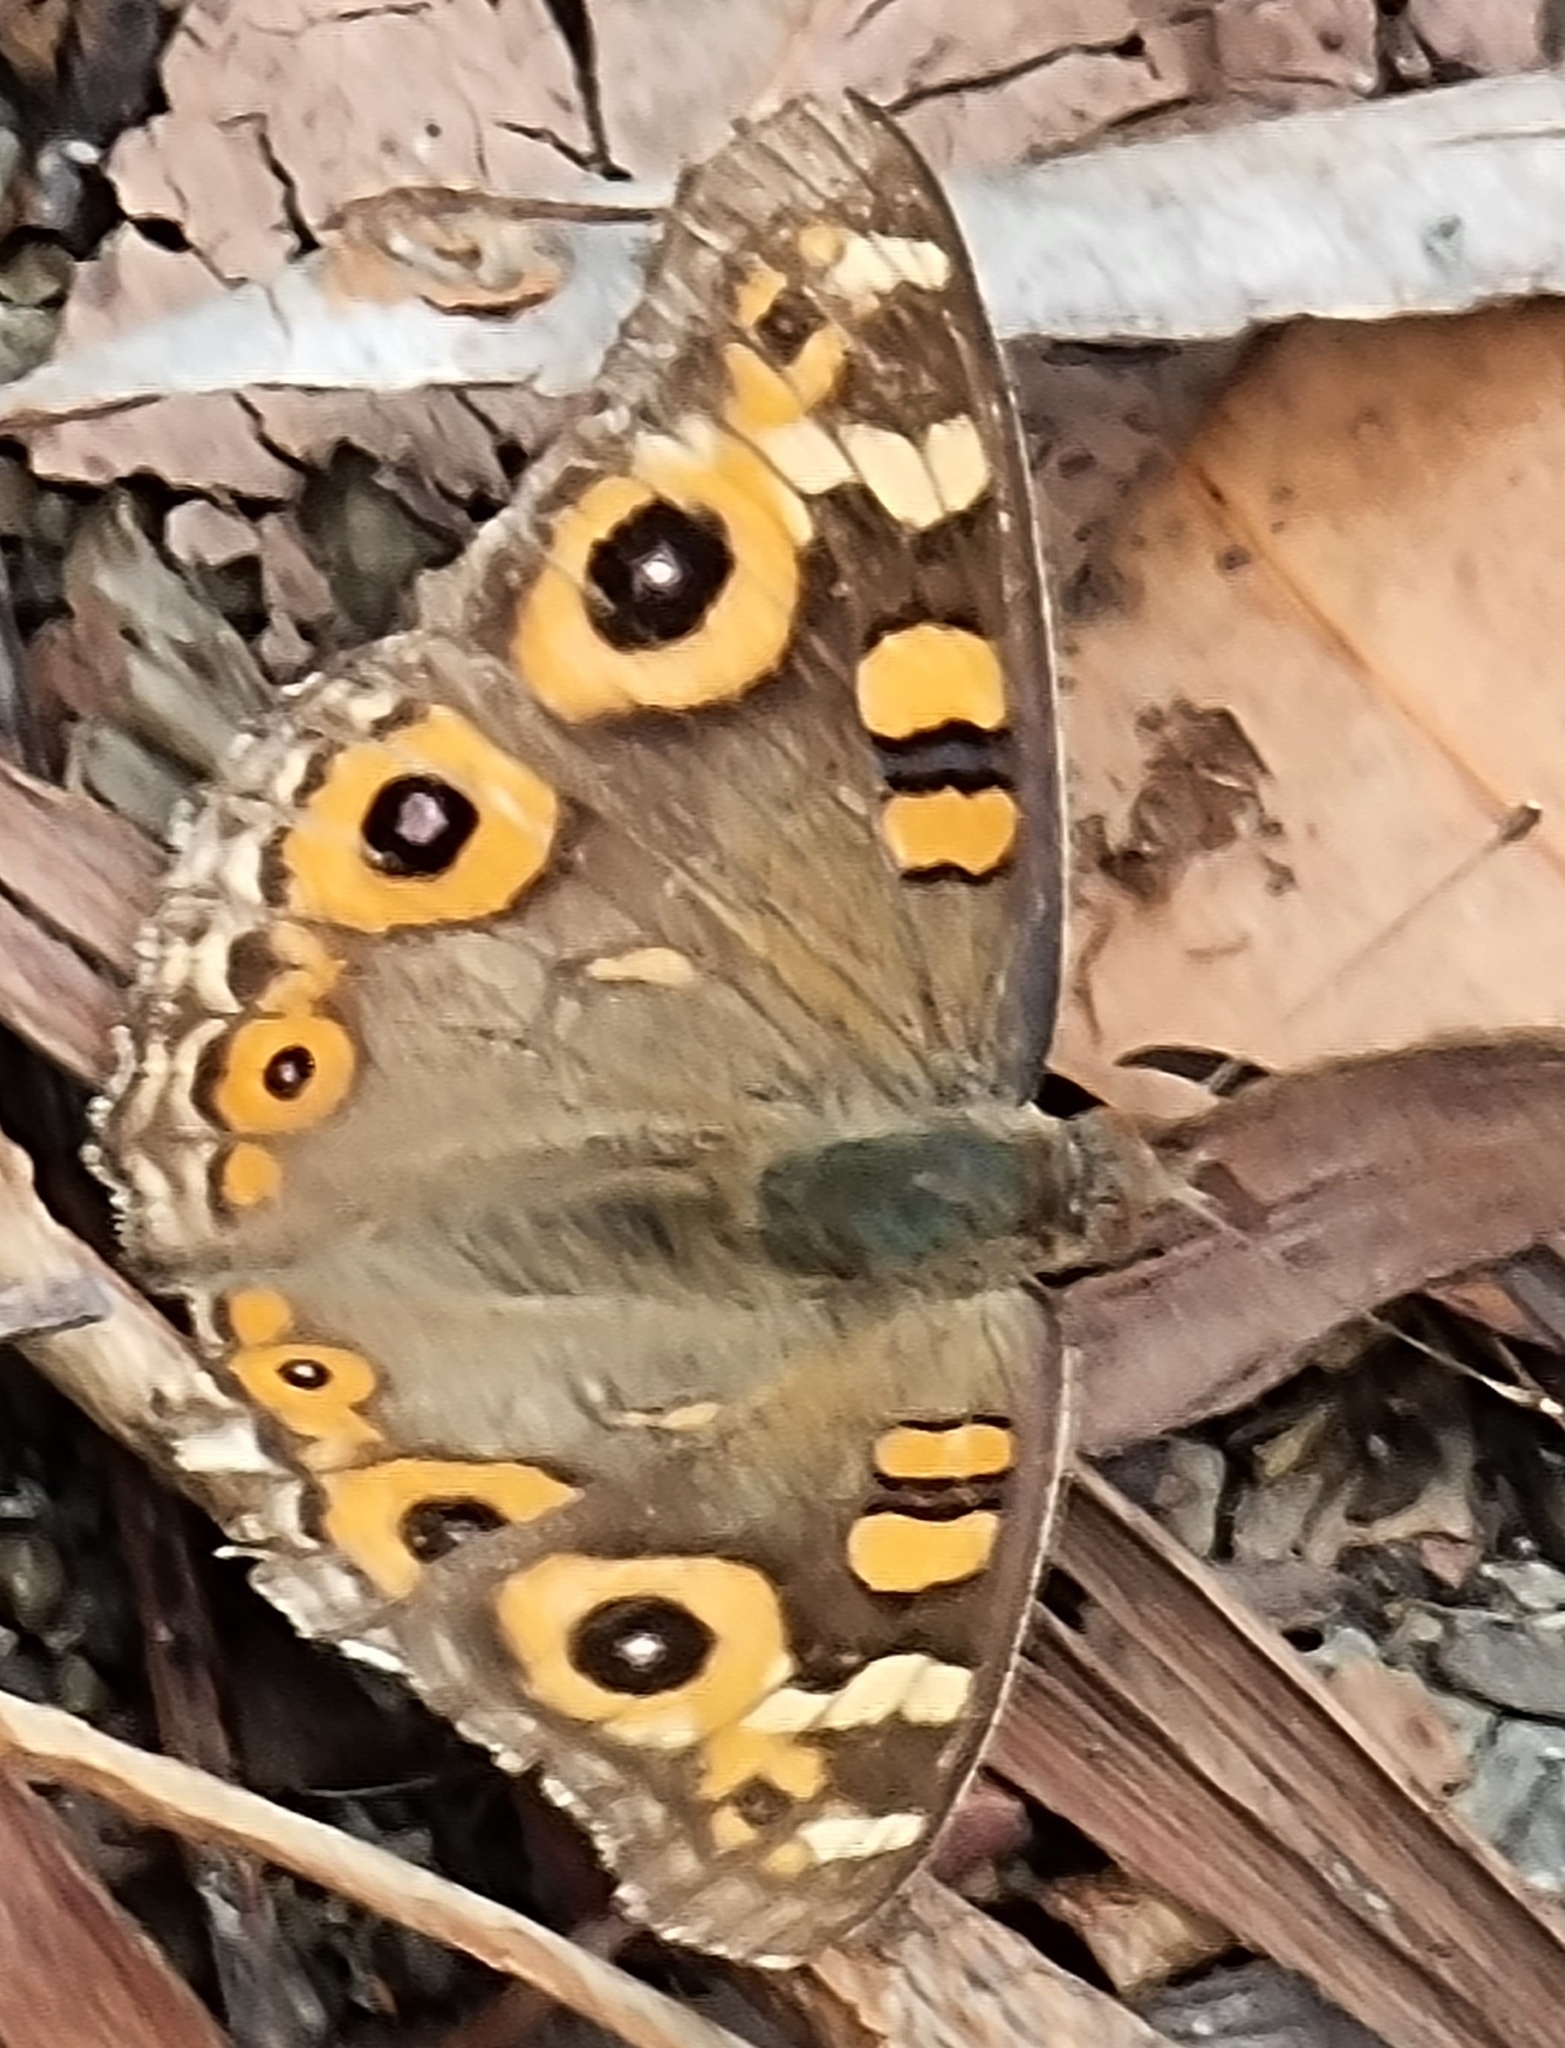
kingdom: Animalia
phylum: Arthropoda
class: Insecta
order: Lepidoptera
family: Nymphalidae
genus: Junonia
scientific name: Junonia villida
